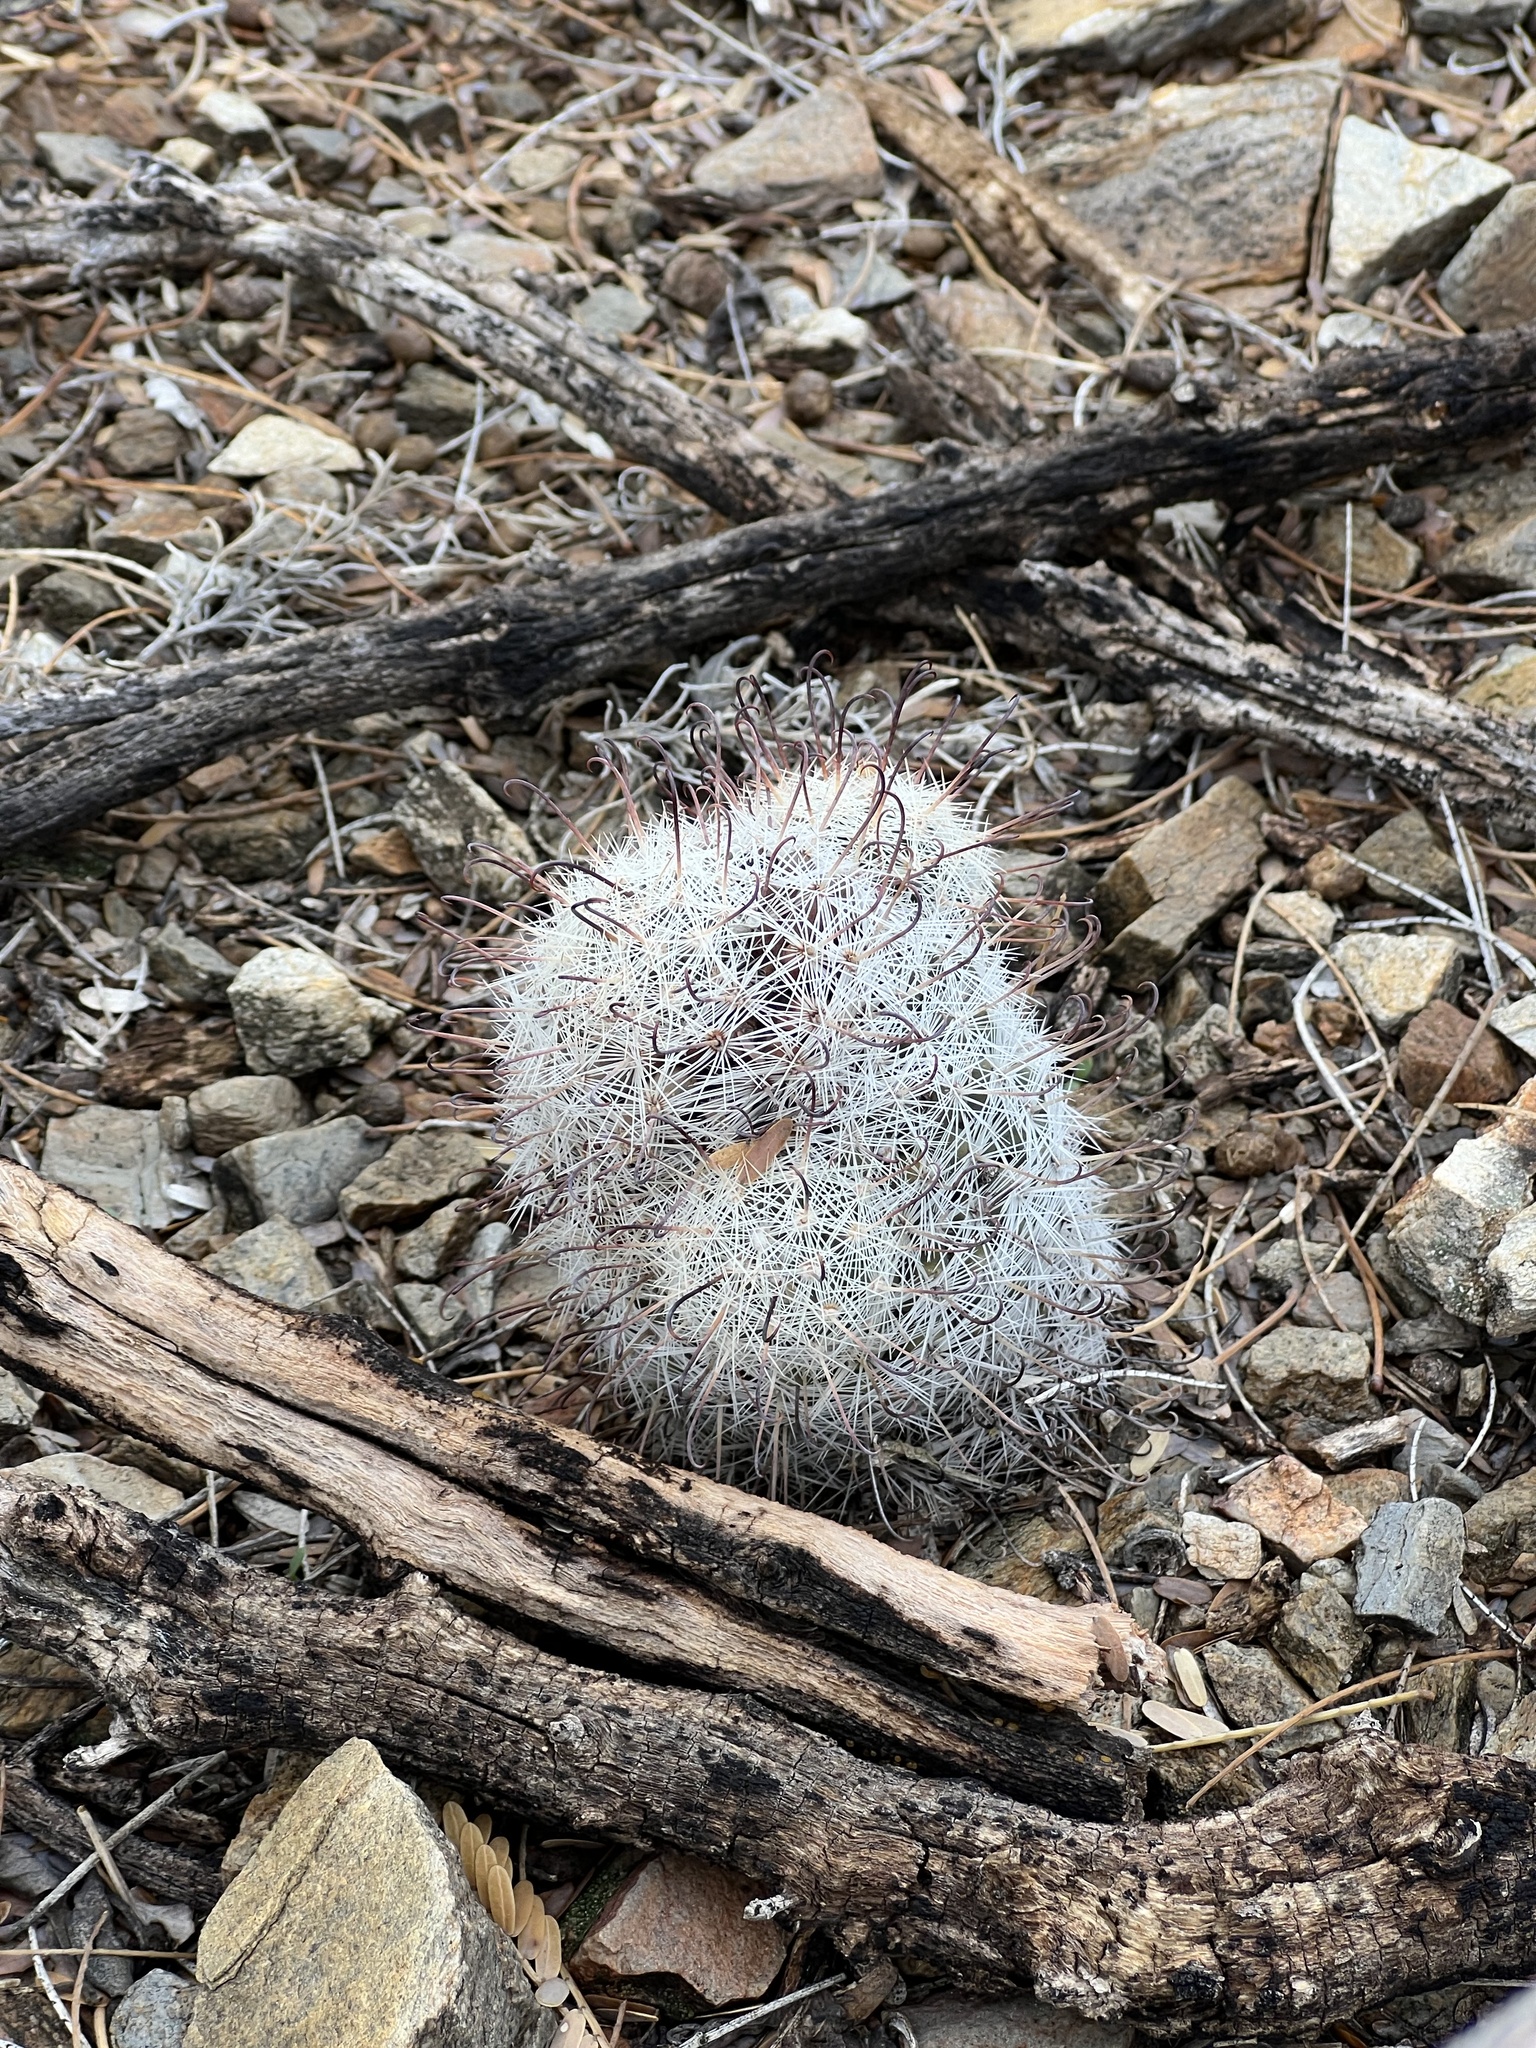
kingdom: Plantae
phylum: Tracheophyta
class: Magnoliopsida
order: Caryophyllales
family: Cactaceae
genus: Cochemiea
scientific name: Cochemiea grahamii
